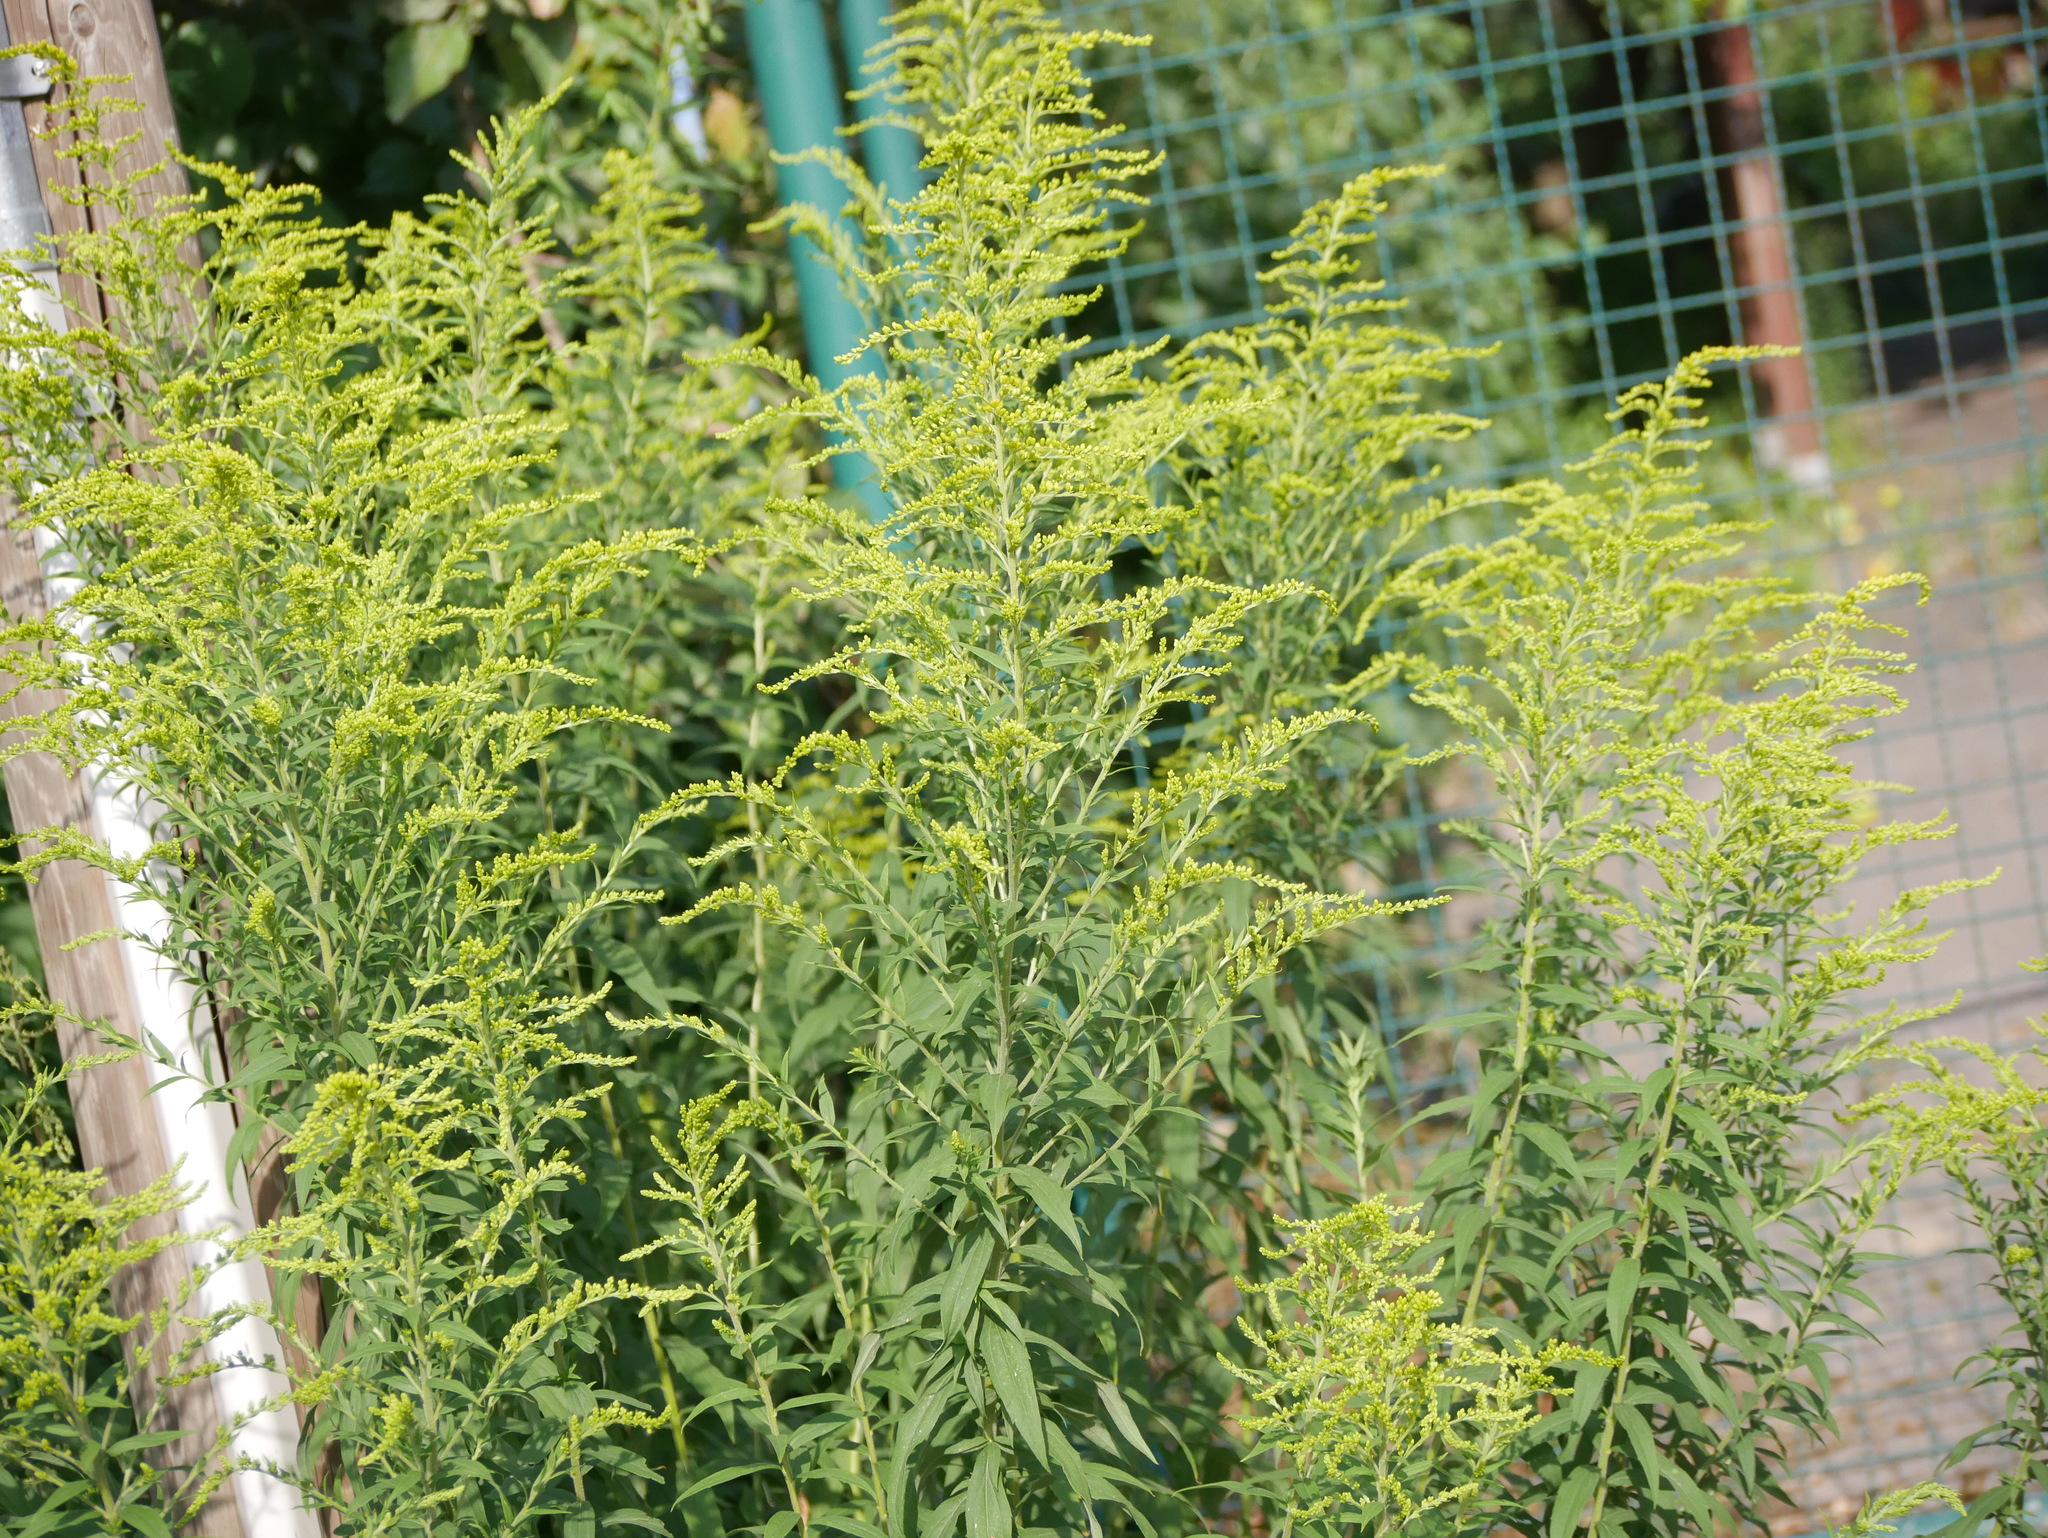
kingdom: Plantae
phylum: Tracheophyta
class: Magnoliopsida
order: Asterales
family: Asteraceae
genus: Solidago
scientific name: Solidago canadensis
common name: Canada goldenrod
